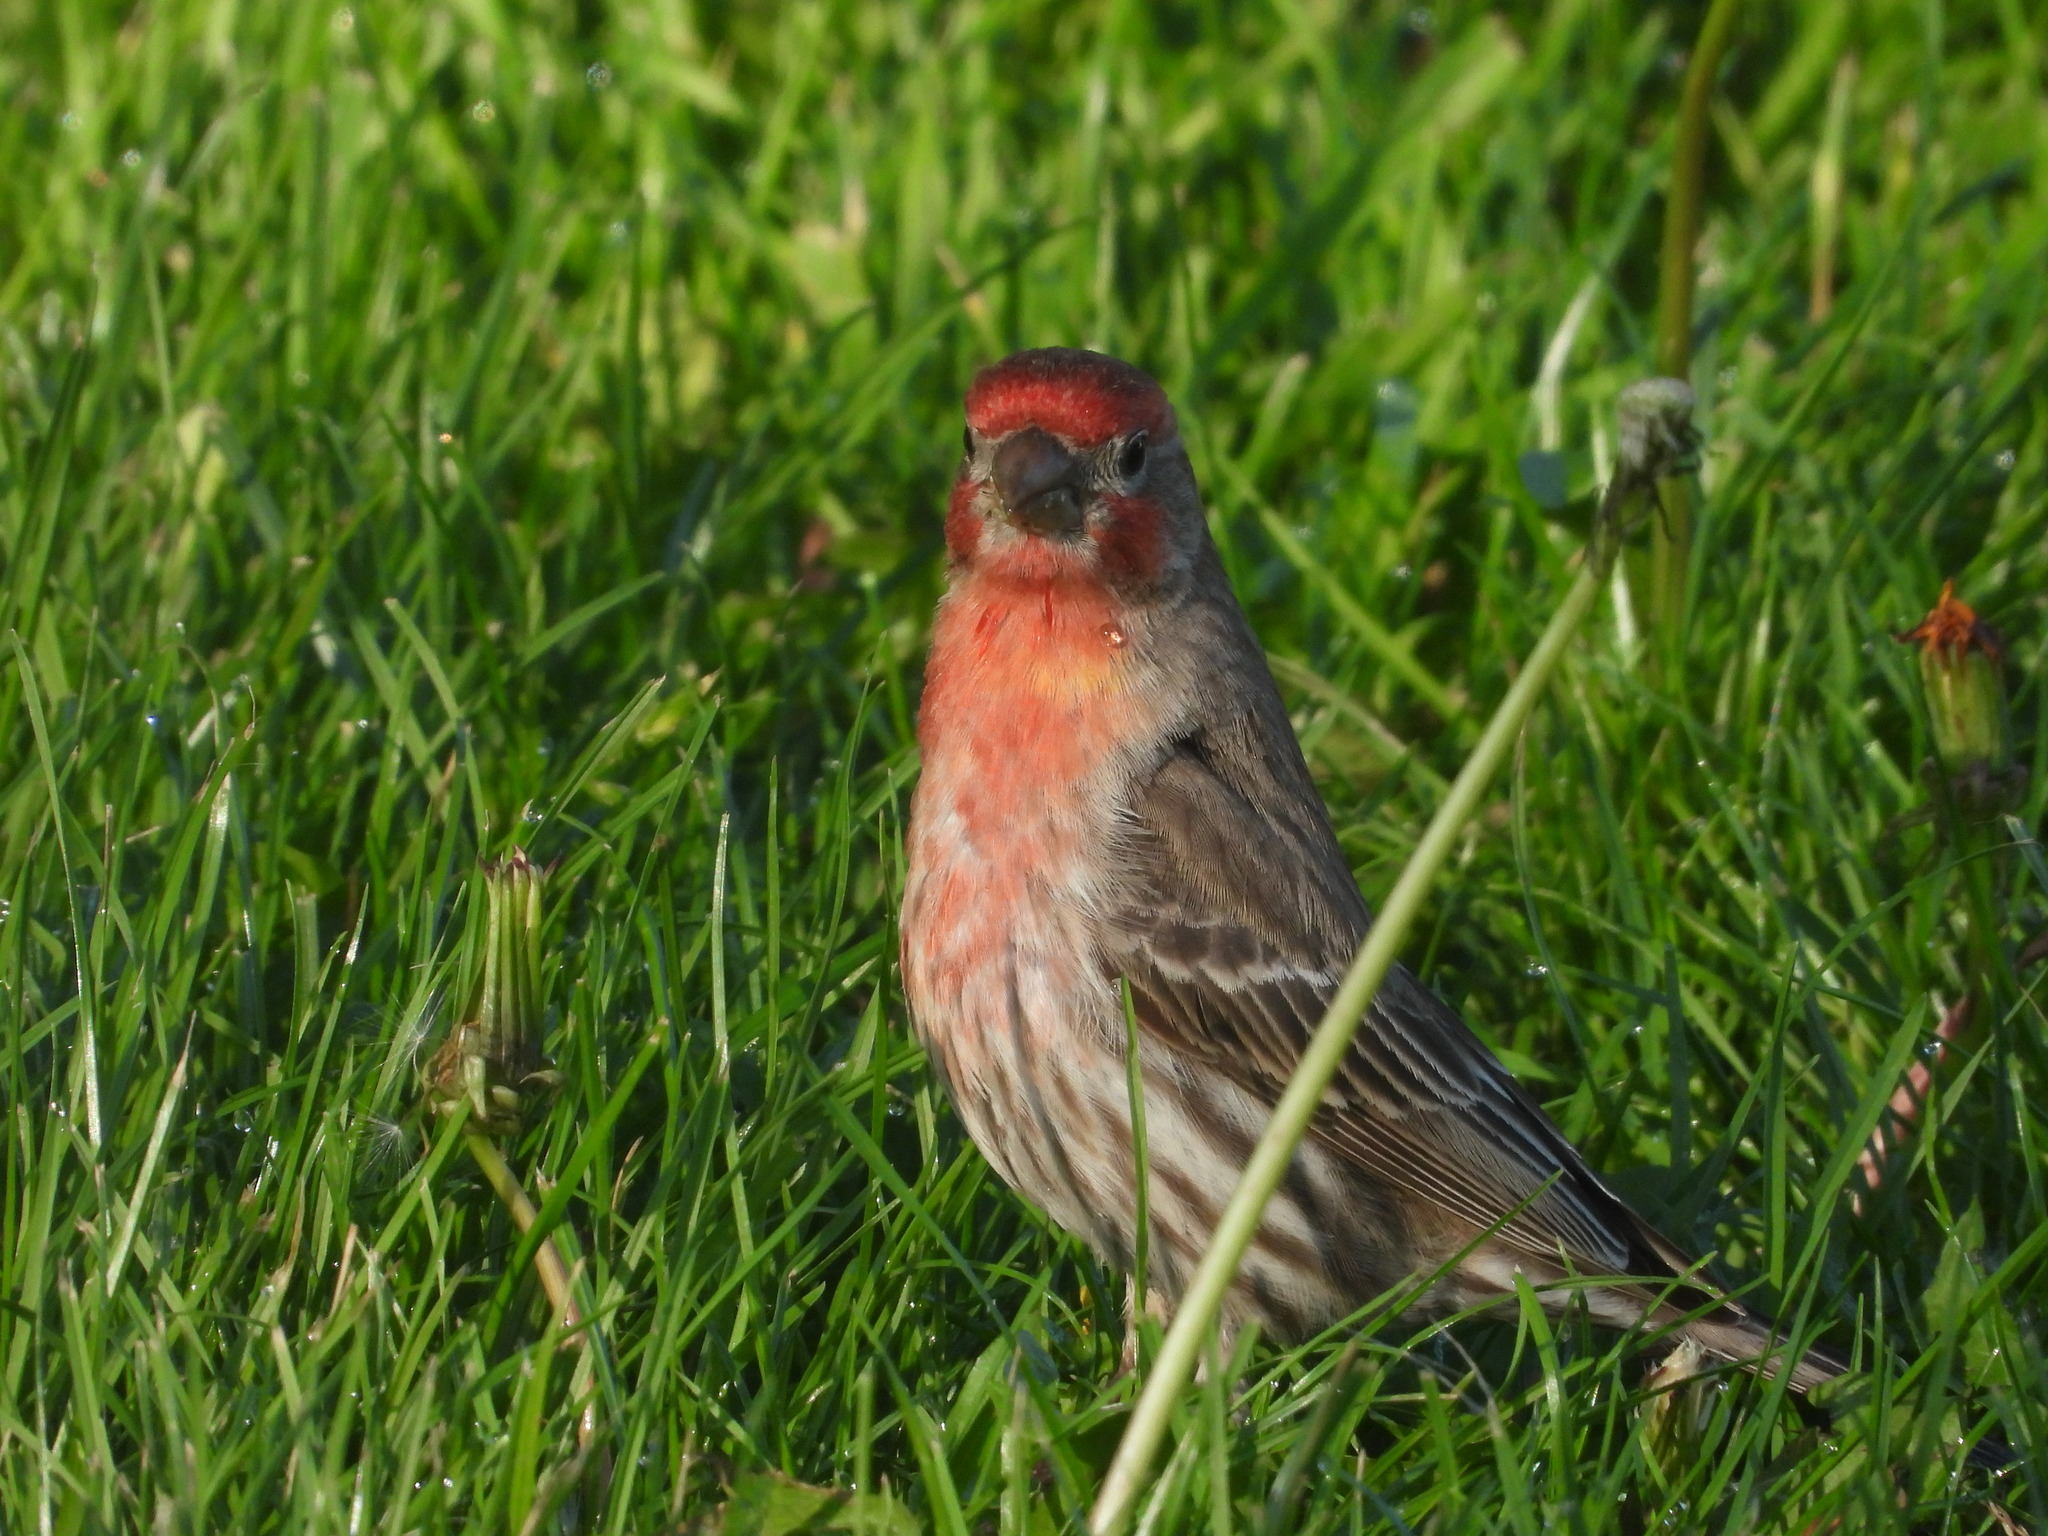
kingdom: Animalia
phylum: Chordata
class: Aves
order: Passeriformes
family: Fringillidae
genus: Haemorhous
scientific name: Haemorhous mexicanus
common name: House finch
